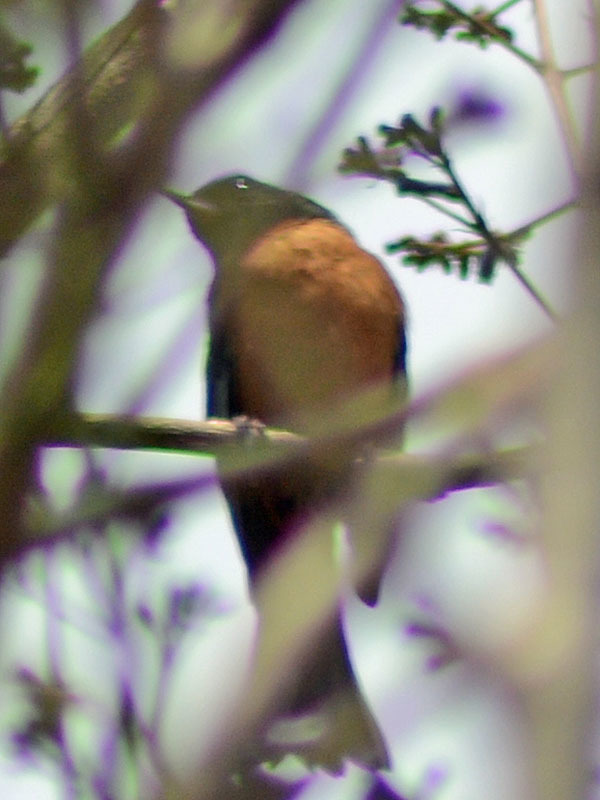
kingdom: Animalia
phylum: Chordata
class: Aves
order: Passeriformes
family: Thraupidae
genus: Diglossa
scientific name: Diglossa baritula
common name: Cinnamon-bellied flowerpiercer
